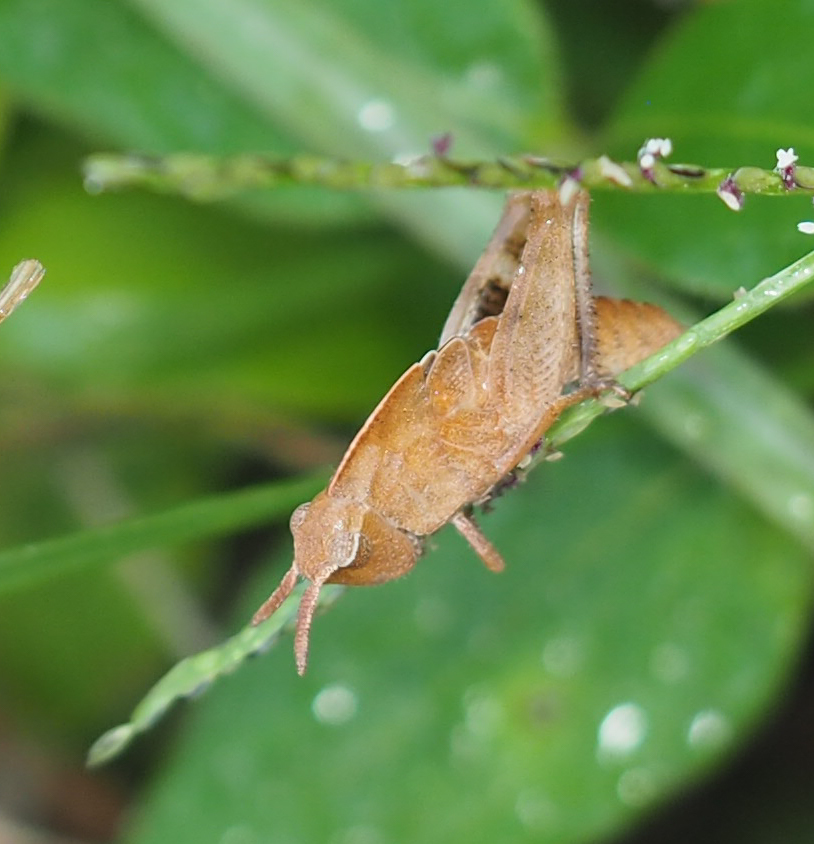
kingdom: Animalia
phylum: Arthropoda
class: Insecta
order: Orthoptera
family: Acrididae
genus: Chortophaga
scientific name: Chortophaga viridifasciata
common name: Green-striped grasshopper
